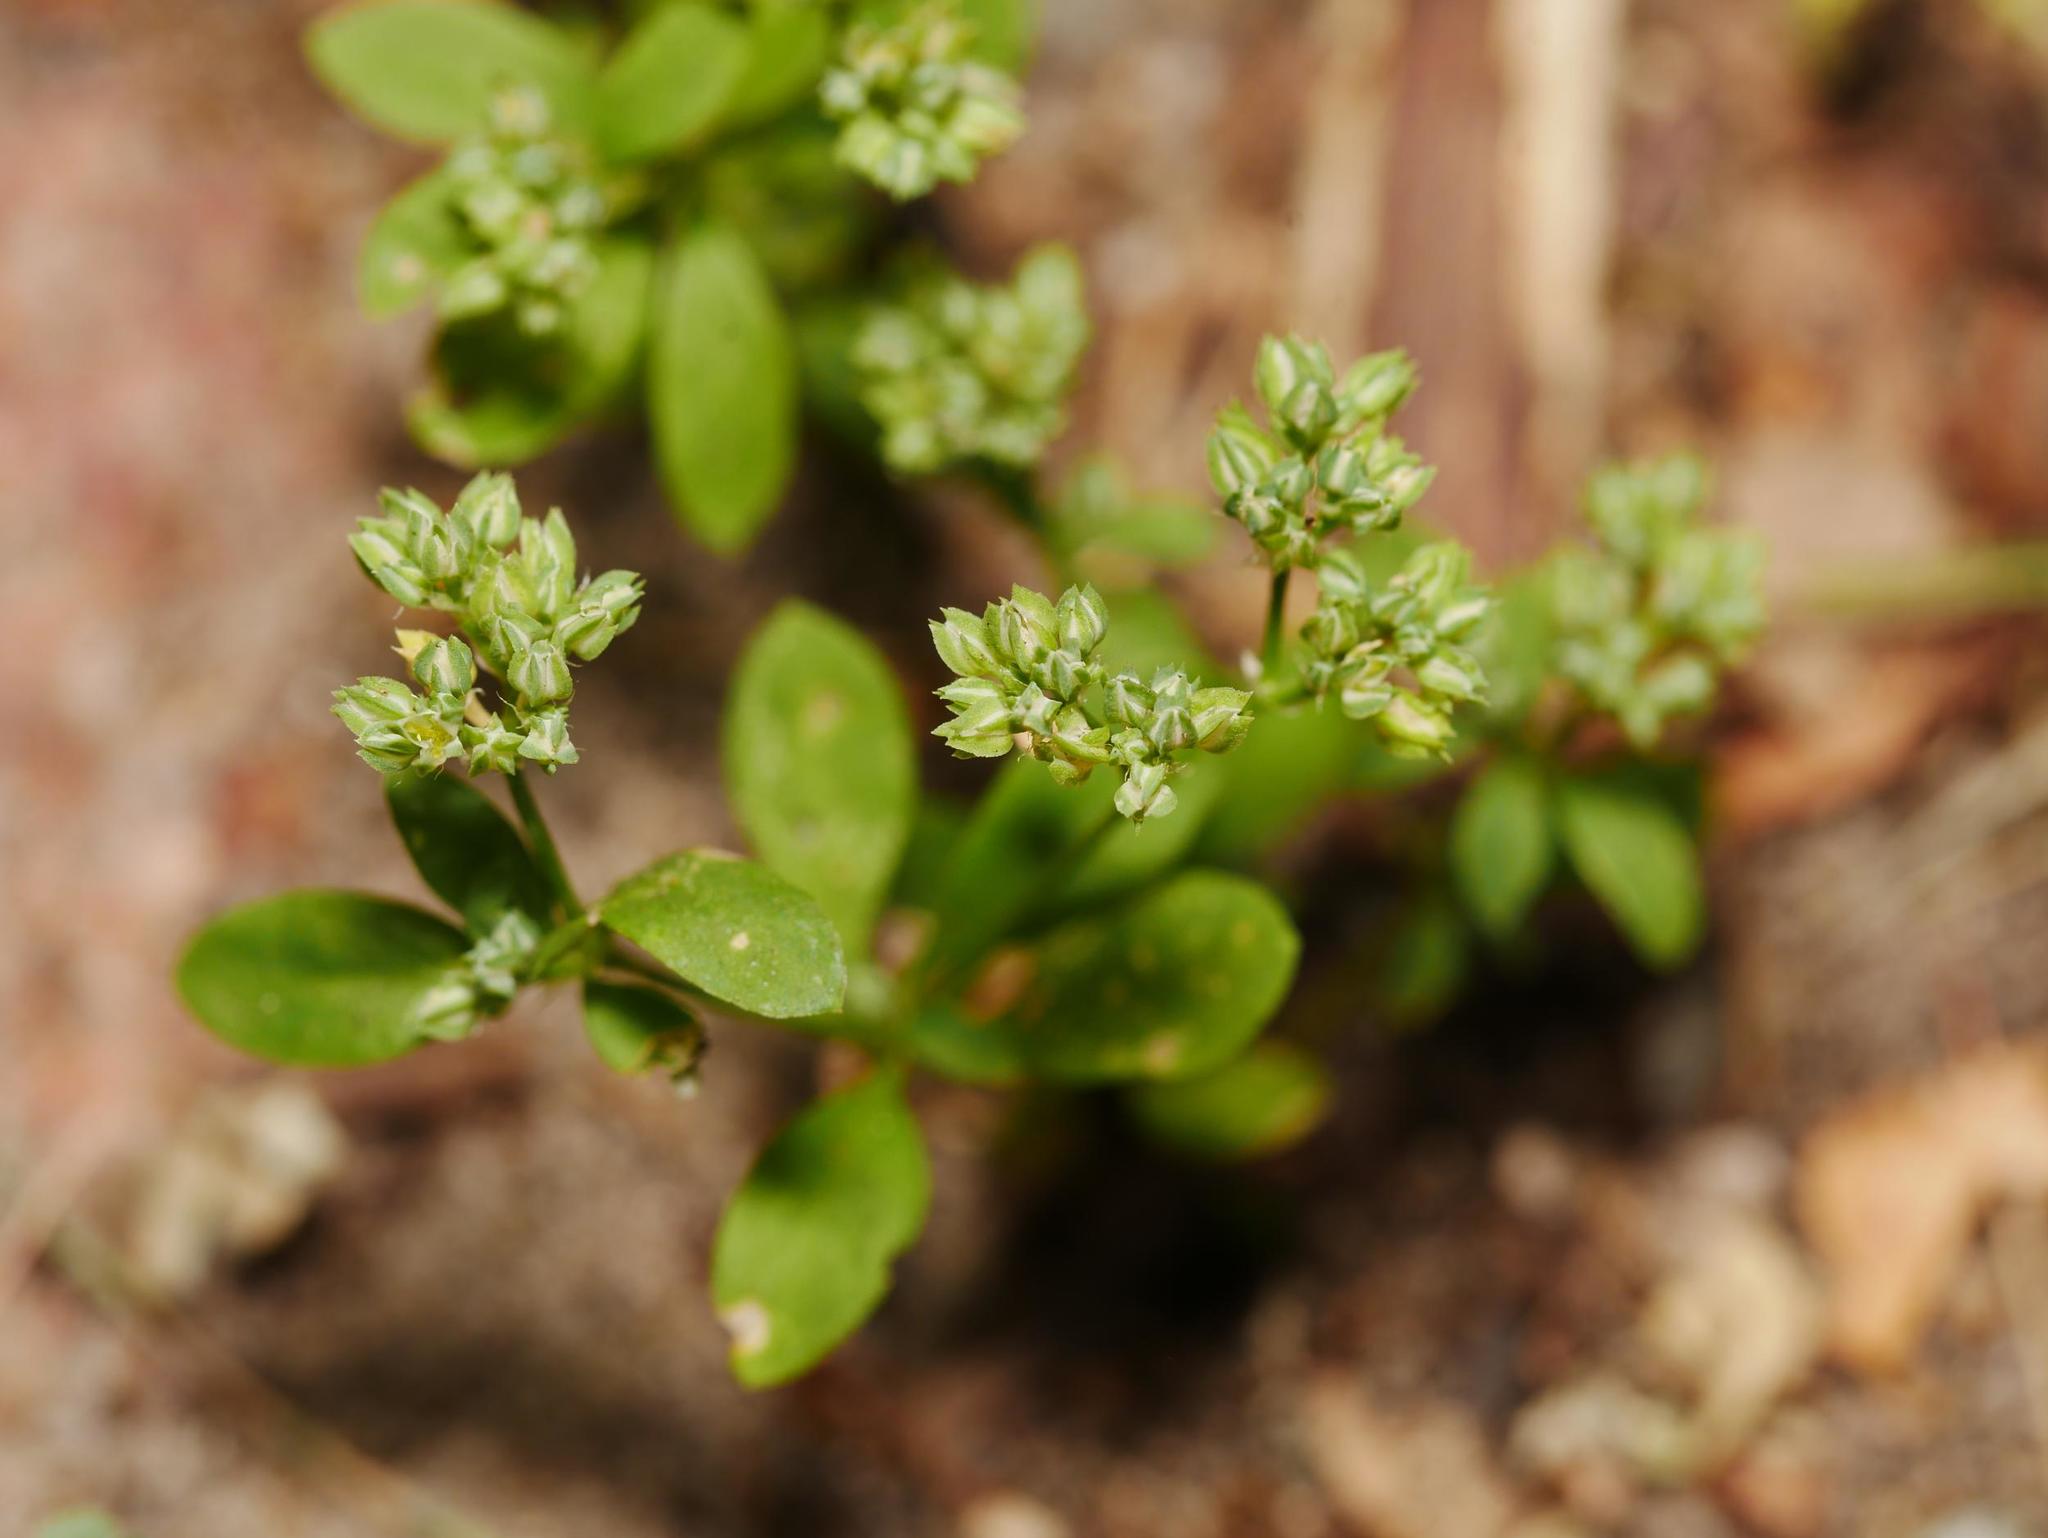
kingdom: Plantae
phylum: Tracheophyta
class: Magnoliopsida
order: Caryophyllales
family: Caryophyllaceae
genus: Polycarpon
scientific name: Polycarpon tetraphyllum
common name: Four-leaved all-seed
